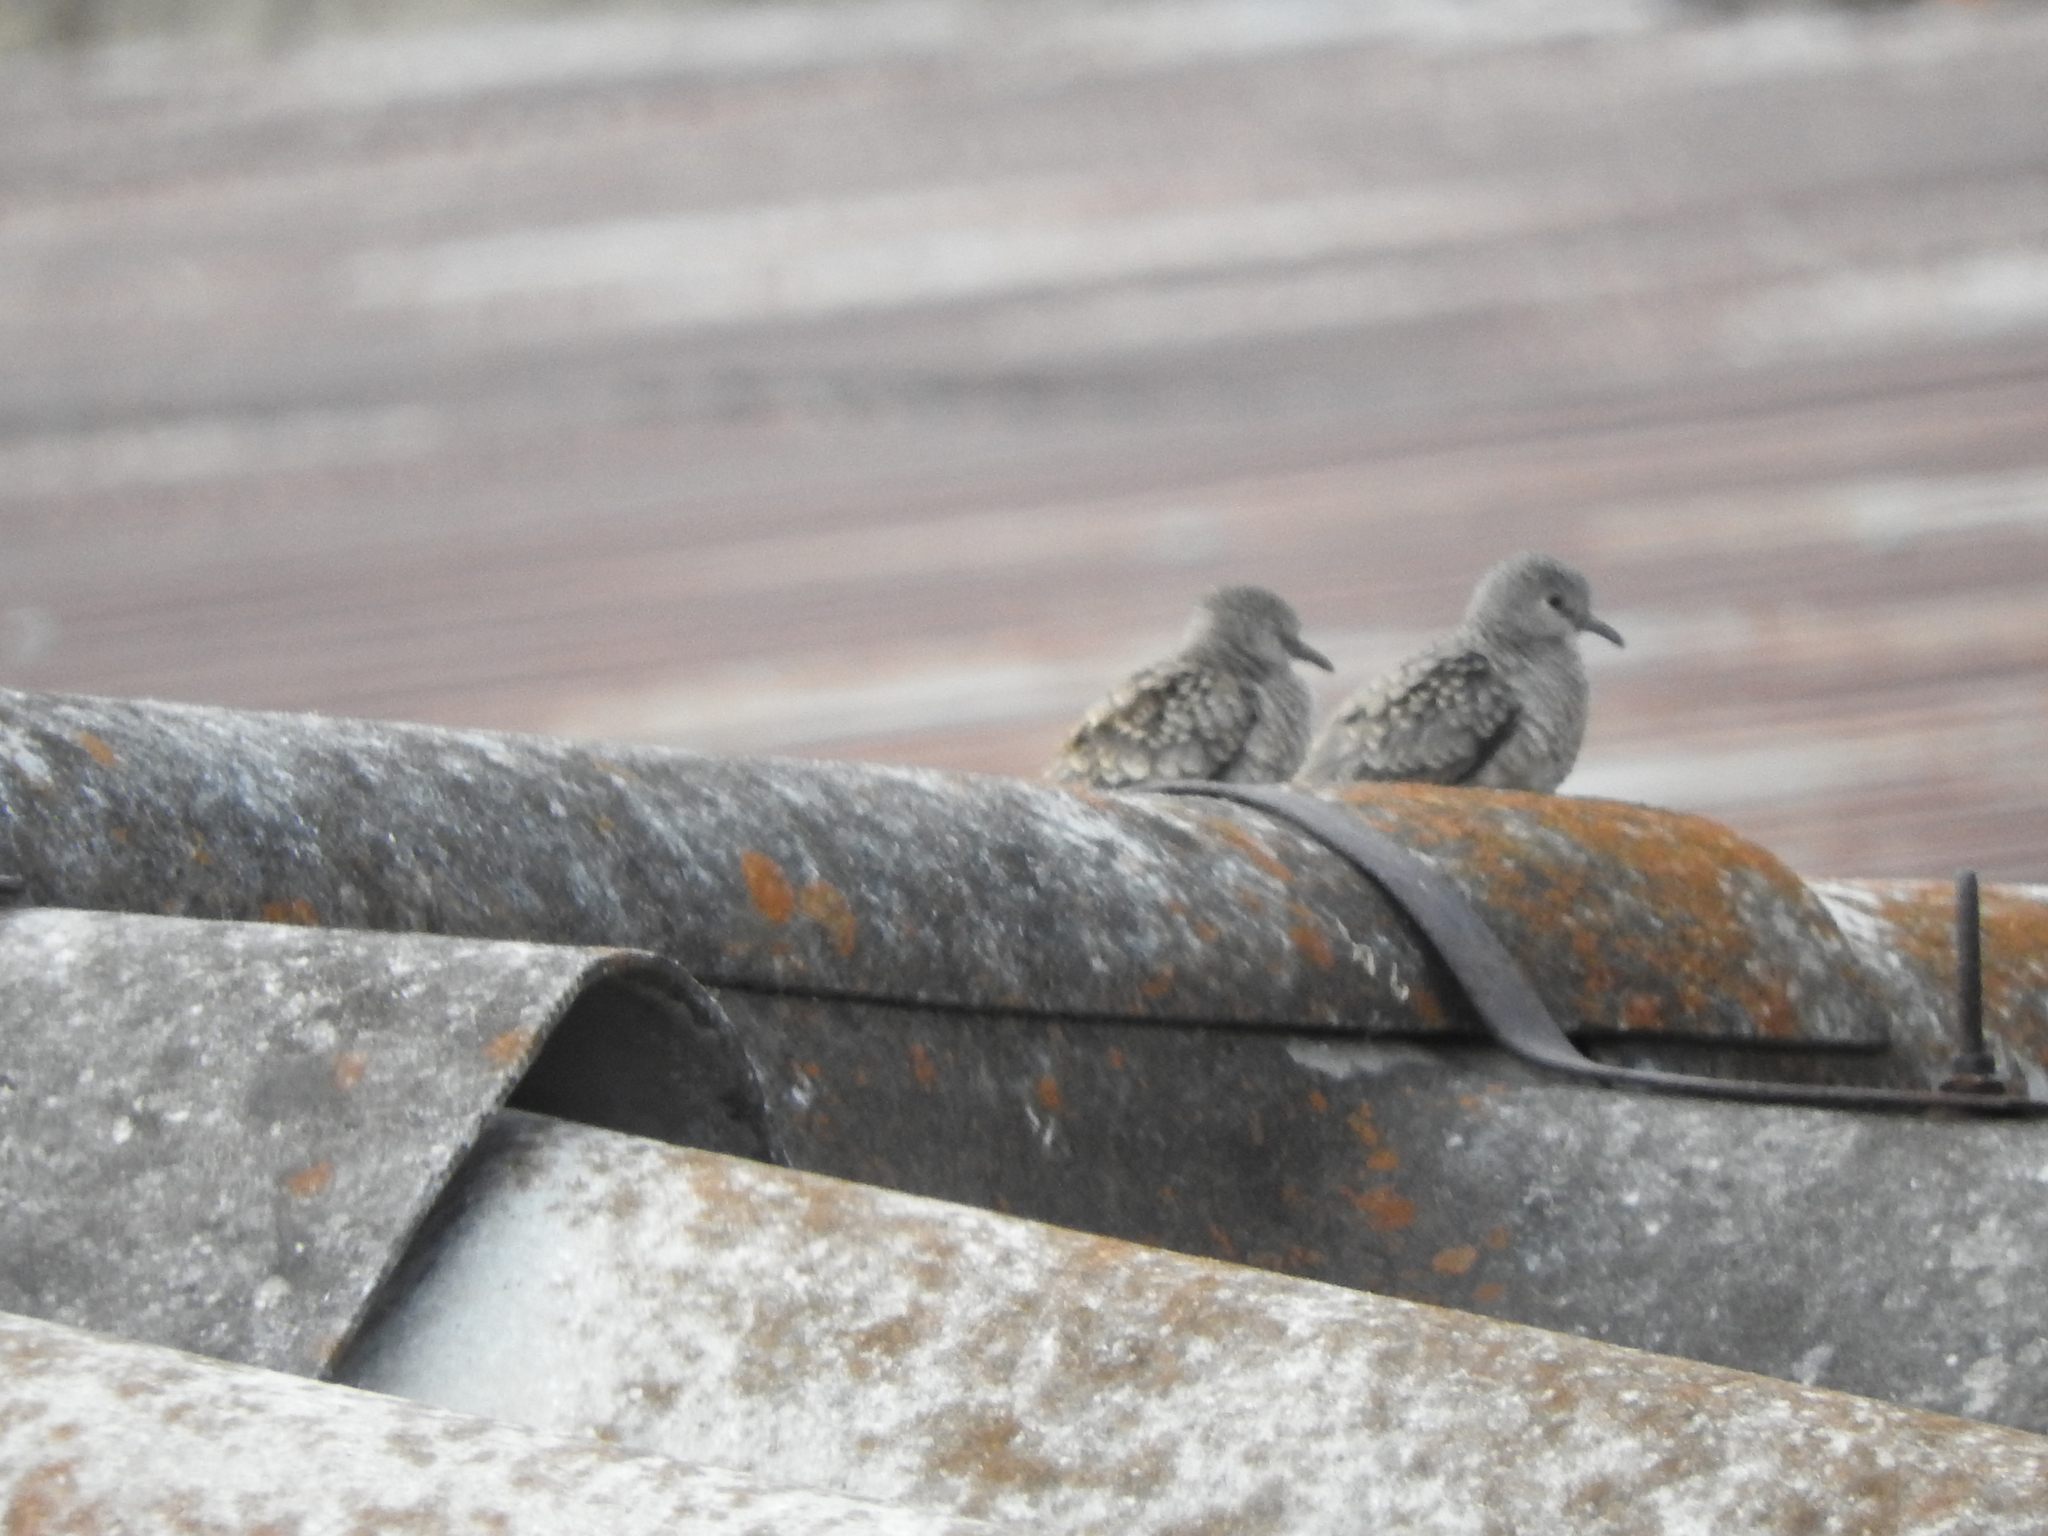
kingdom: Animalia
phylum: Chordata
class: Aves
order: Columbiformes
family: Columbidae
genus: Columbina
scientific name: Columbina inca
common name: Inca dove
